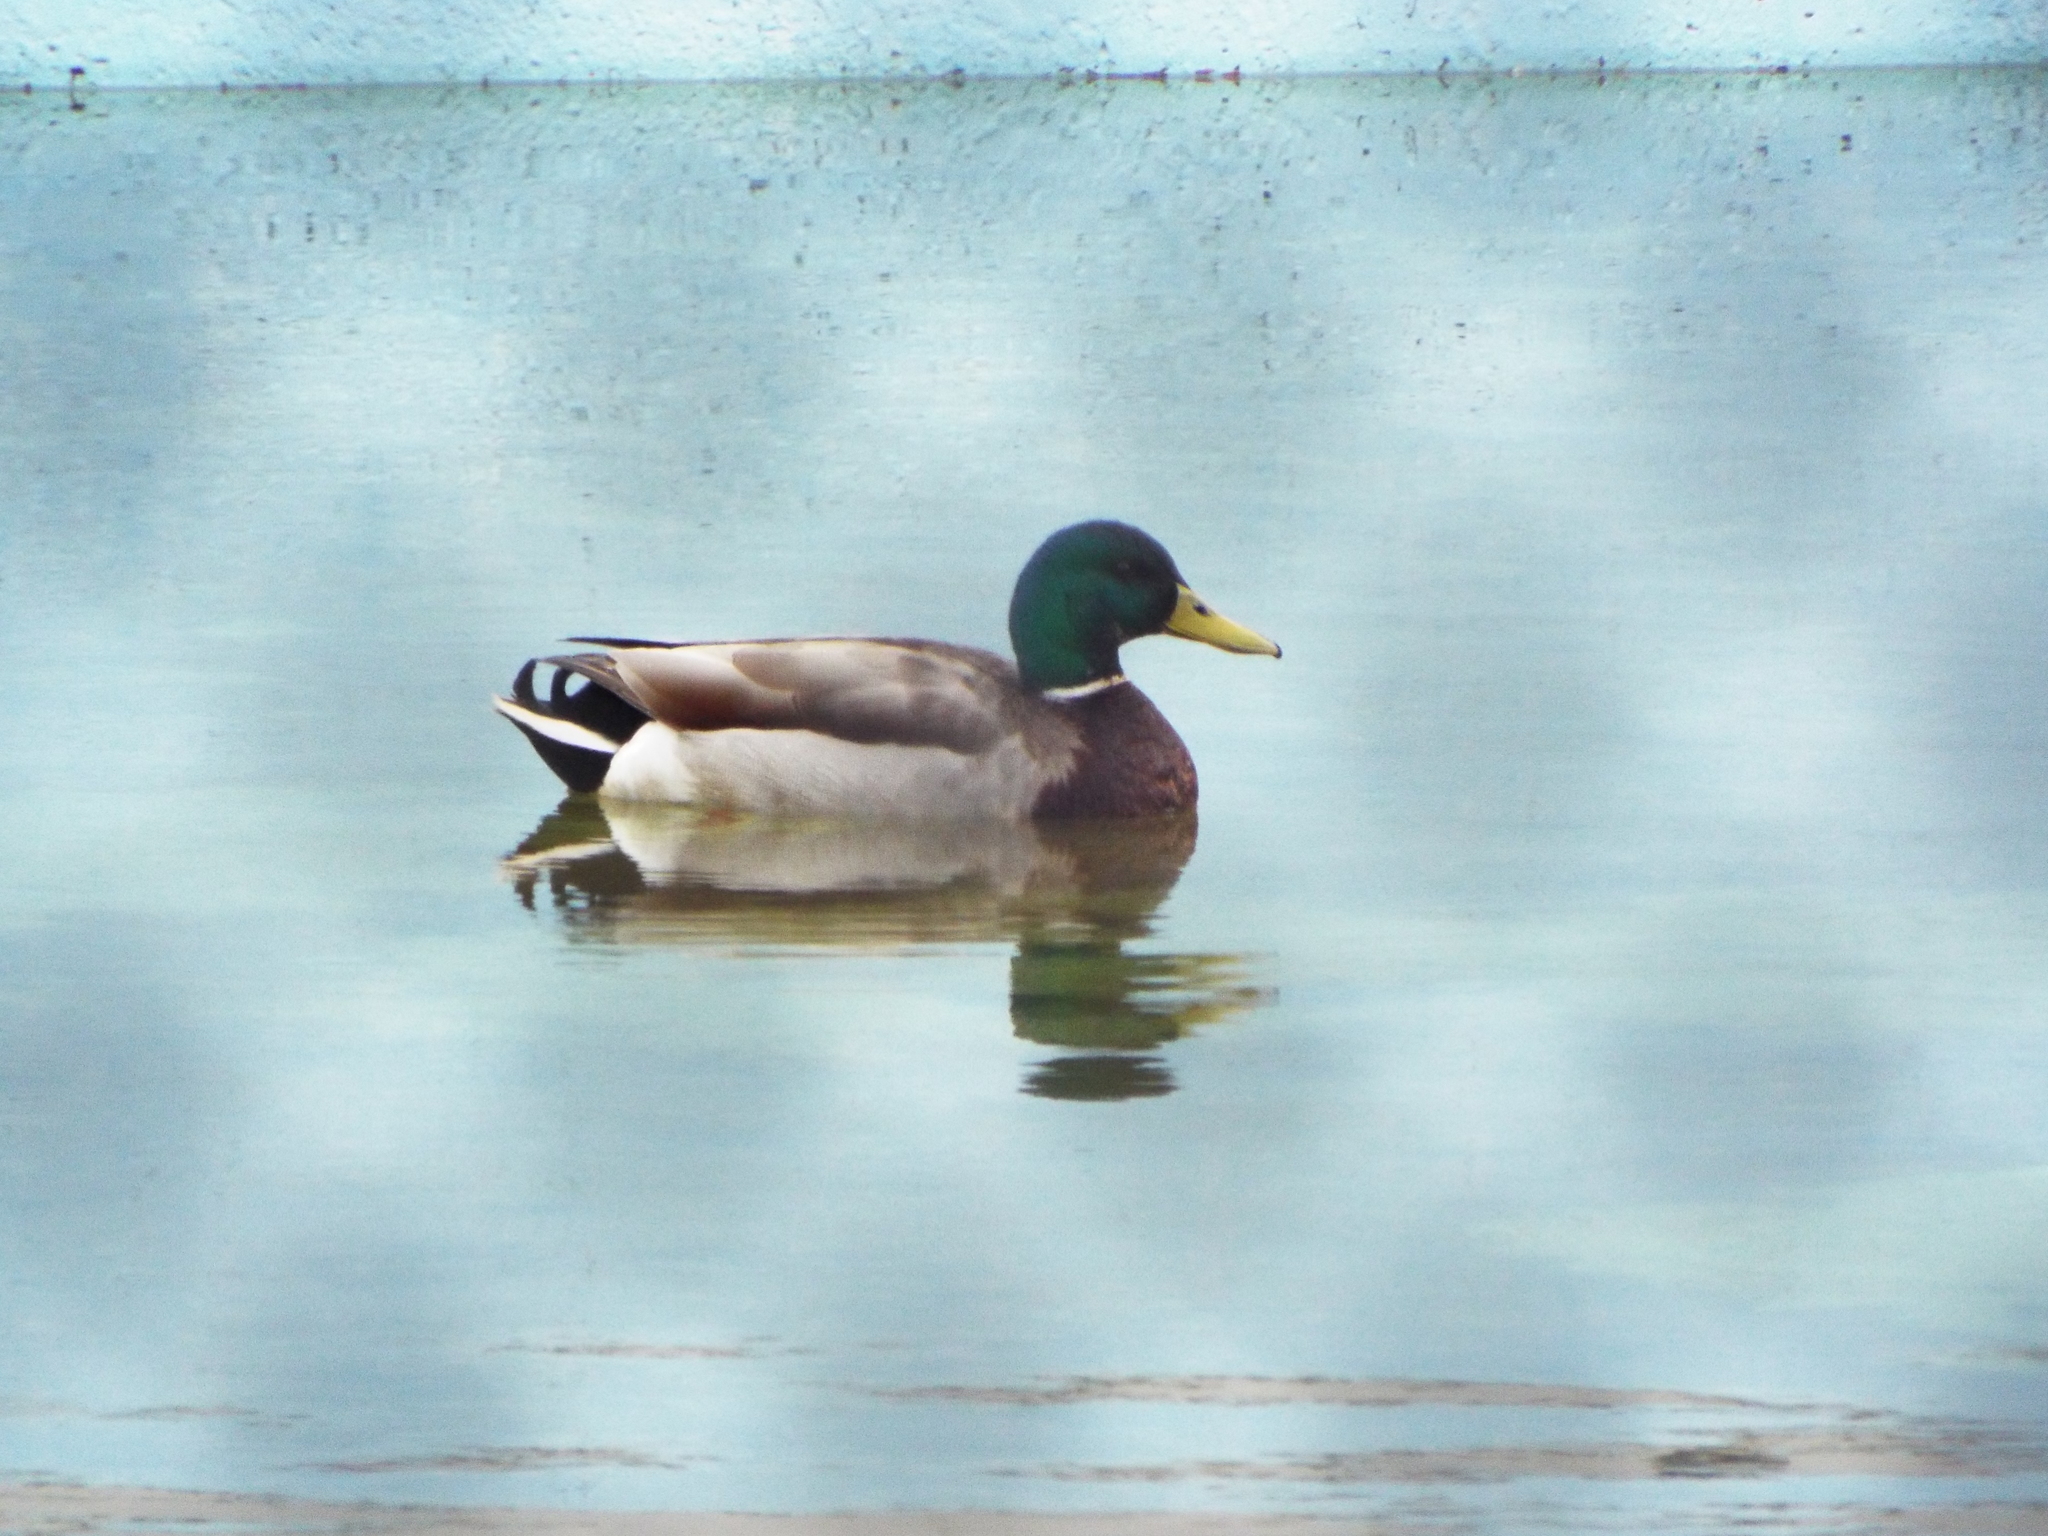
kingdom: Animalia
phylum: Chordata
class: Aves
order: Anseriformes
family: Anatidae
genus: Anas
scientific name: Anas platyrhynchos
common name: Mallard
